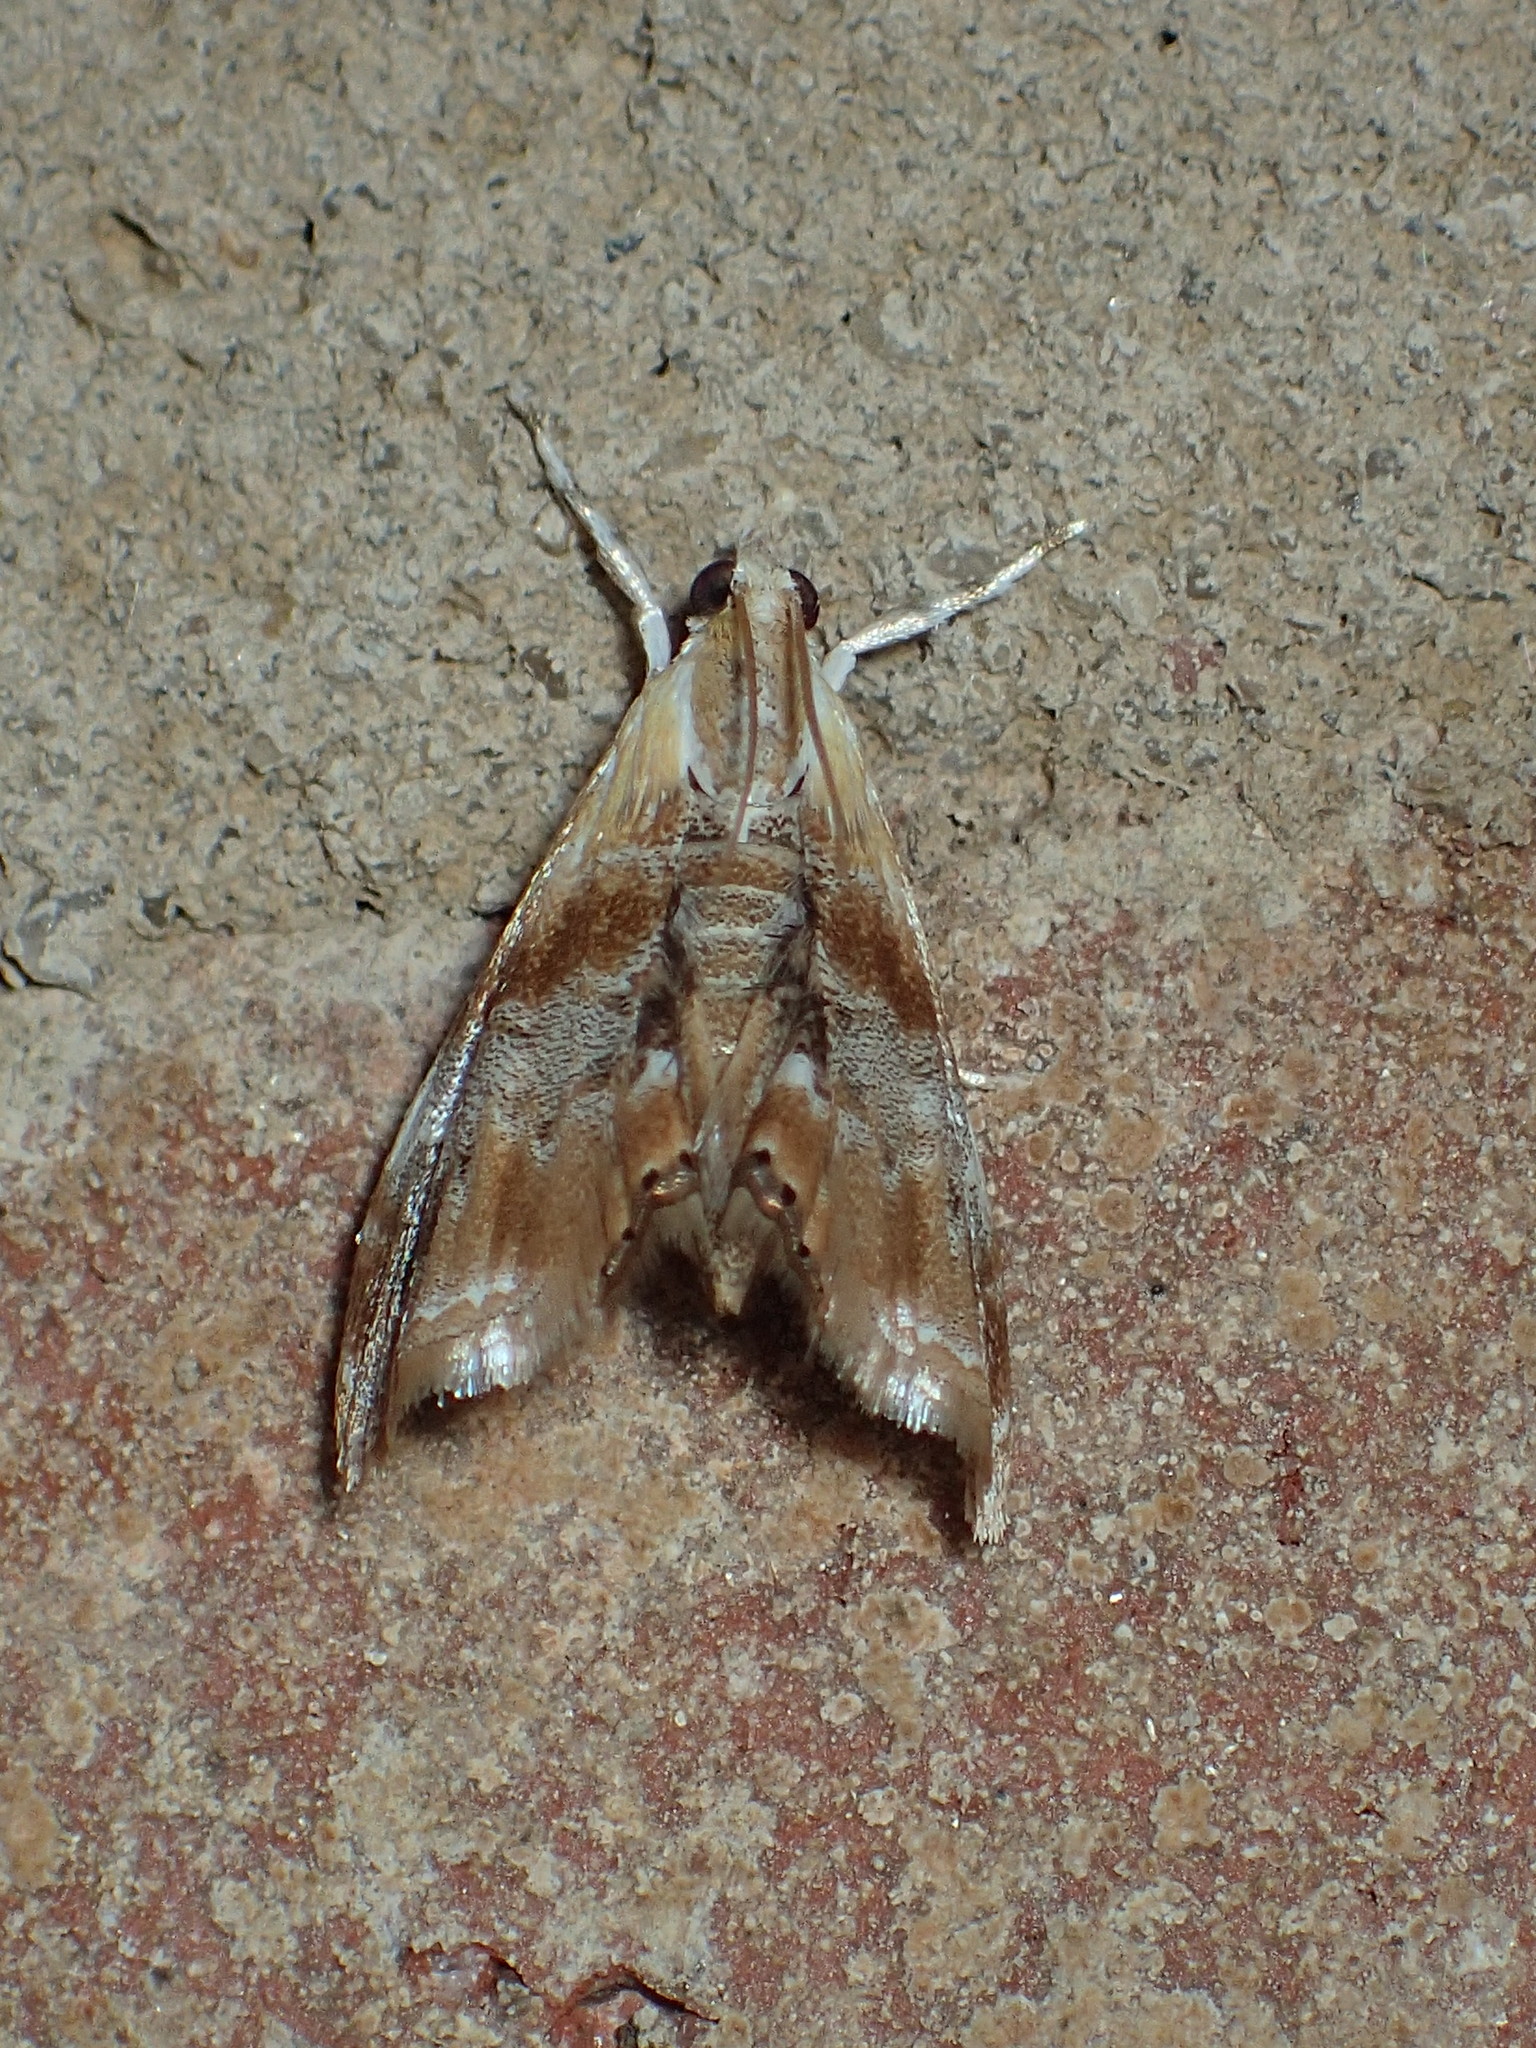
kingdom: Animalia
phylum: Arthropoda
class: Insecta
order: Lepidoptera
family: Crambidae
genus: Dicymolomia
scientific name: Dicymolomia julianalis
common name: Julia's dicymolomia moth
